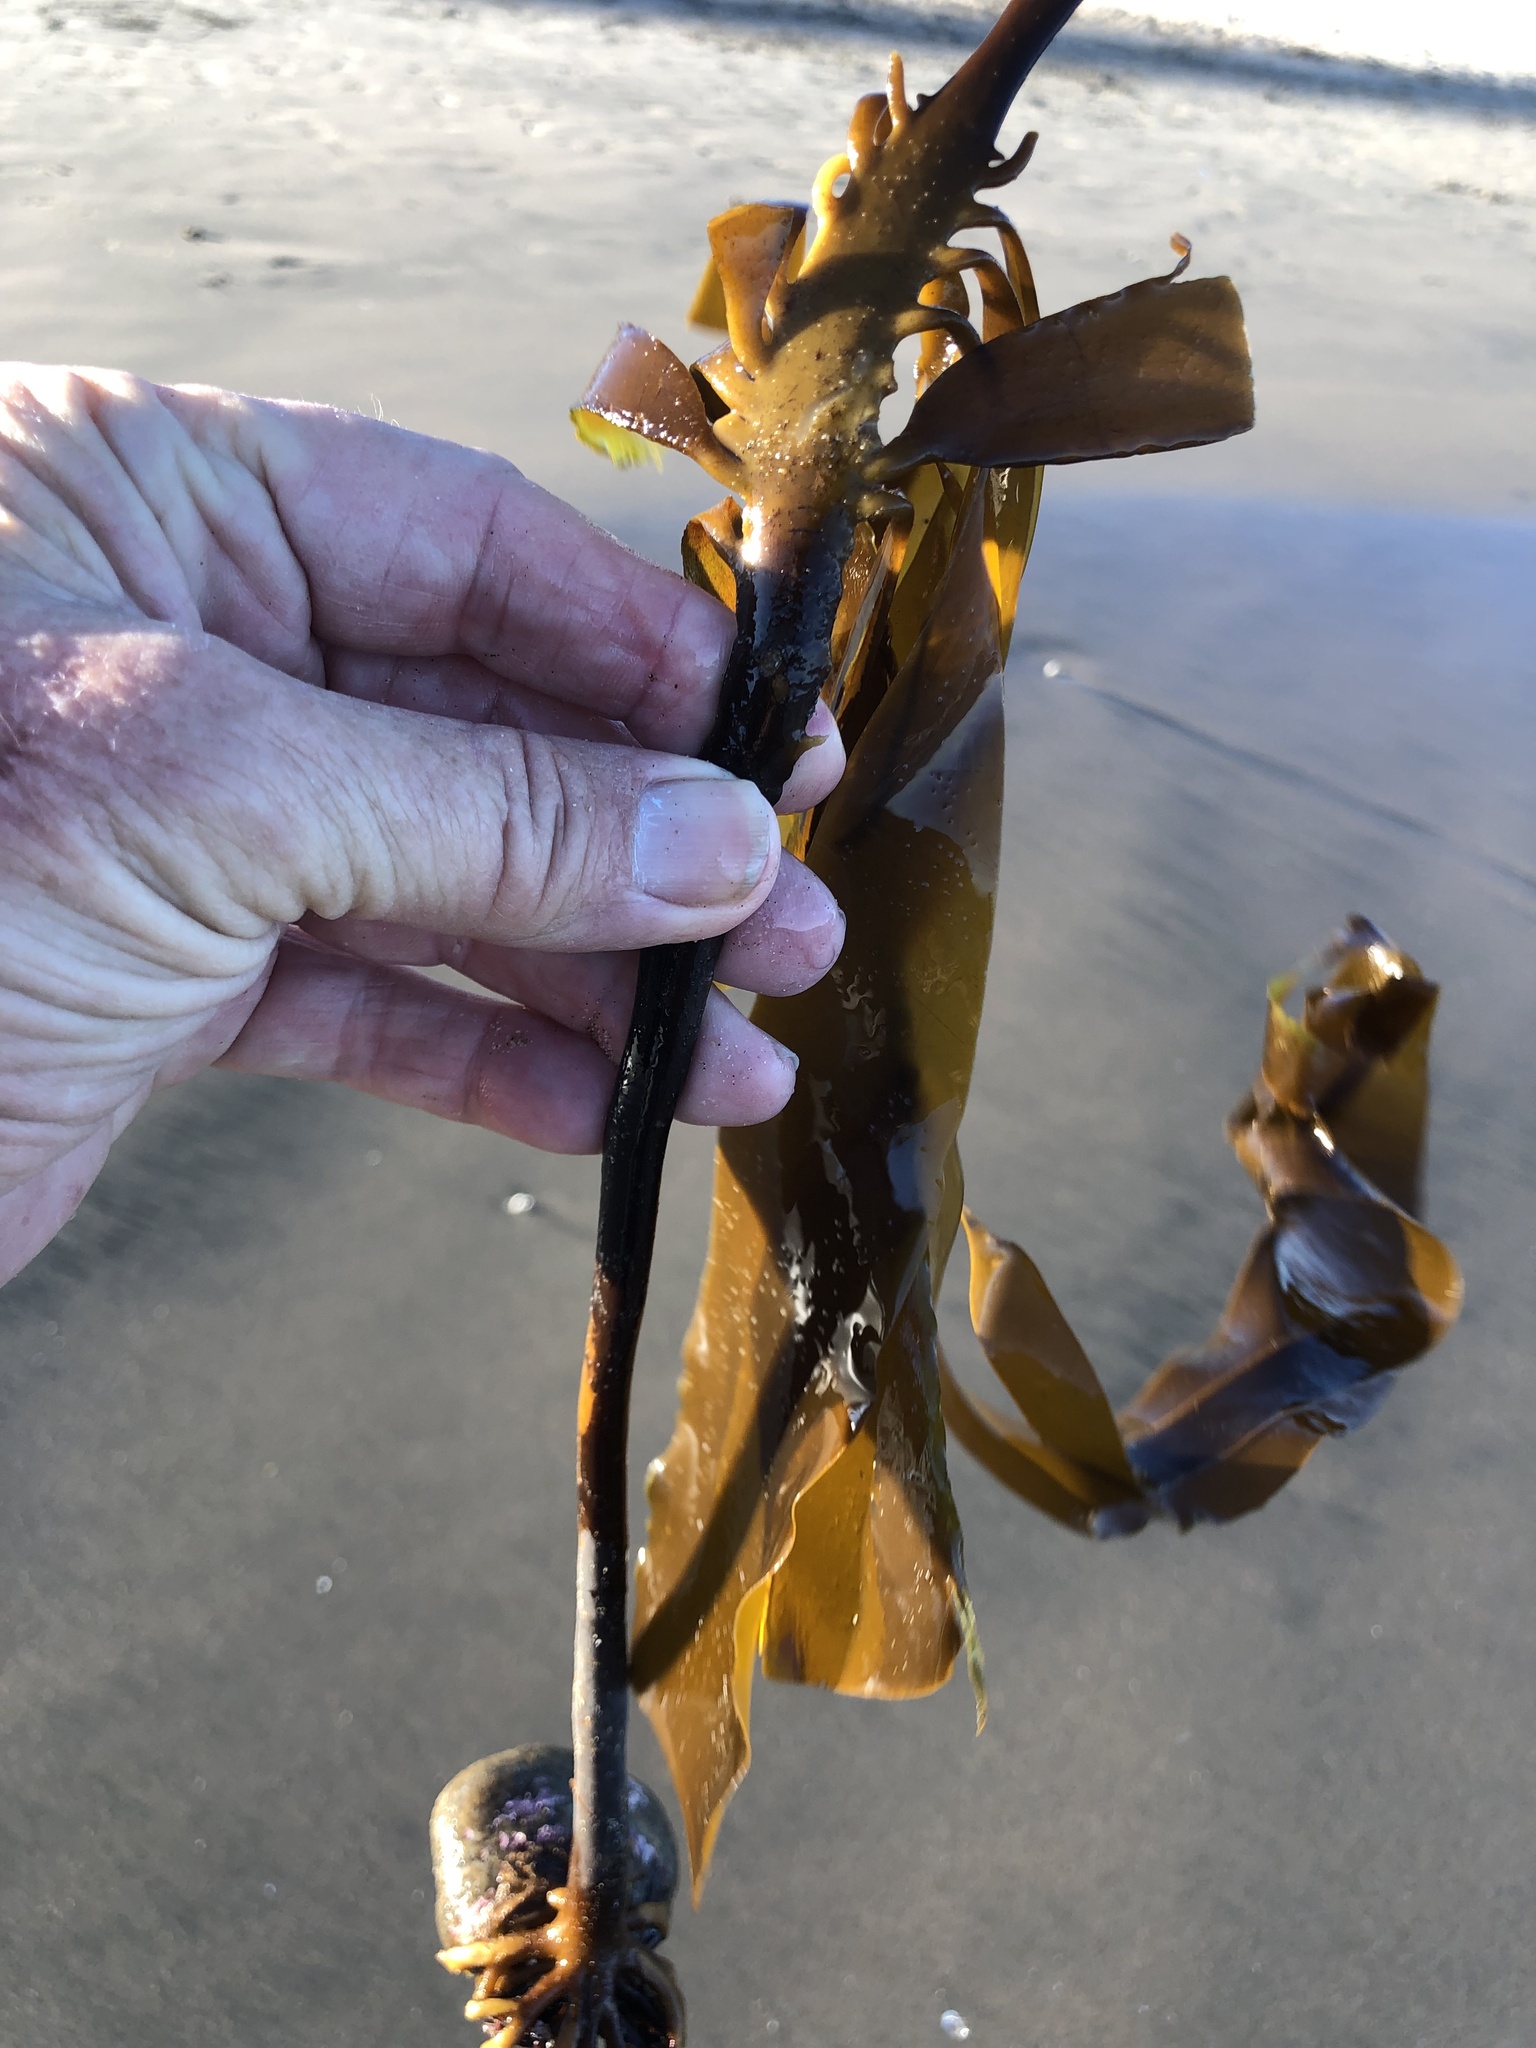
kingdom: Chromista
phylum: Ochrophyta
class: Phaeophyceae
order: Laminariales
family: Alariaceae
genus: Pterygophora
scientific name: Pterygophora californica
